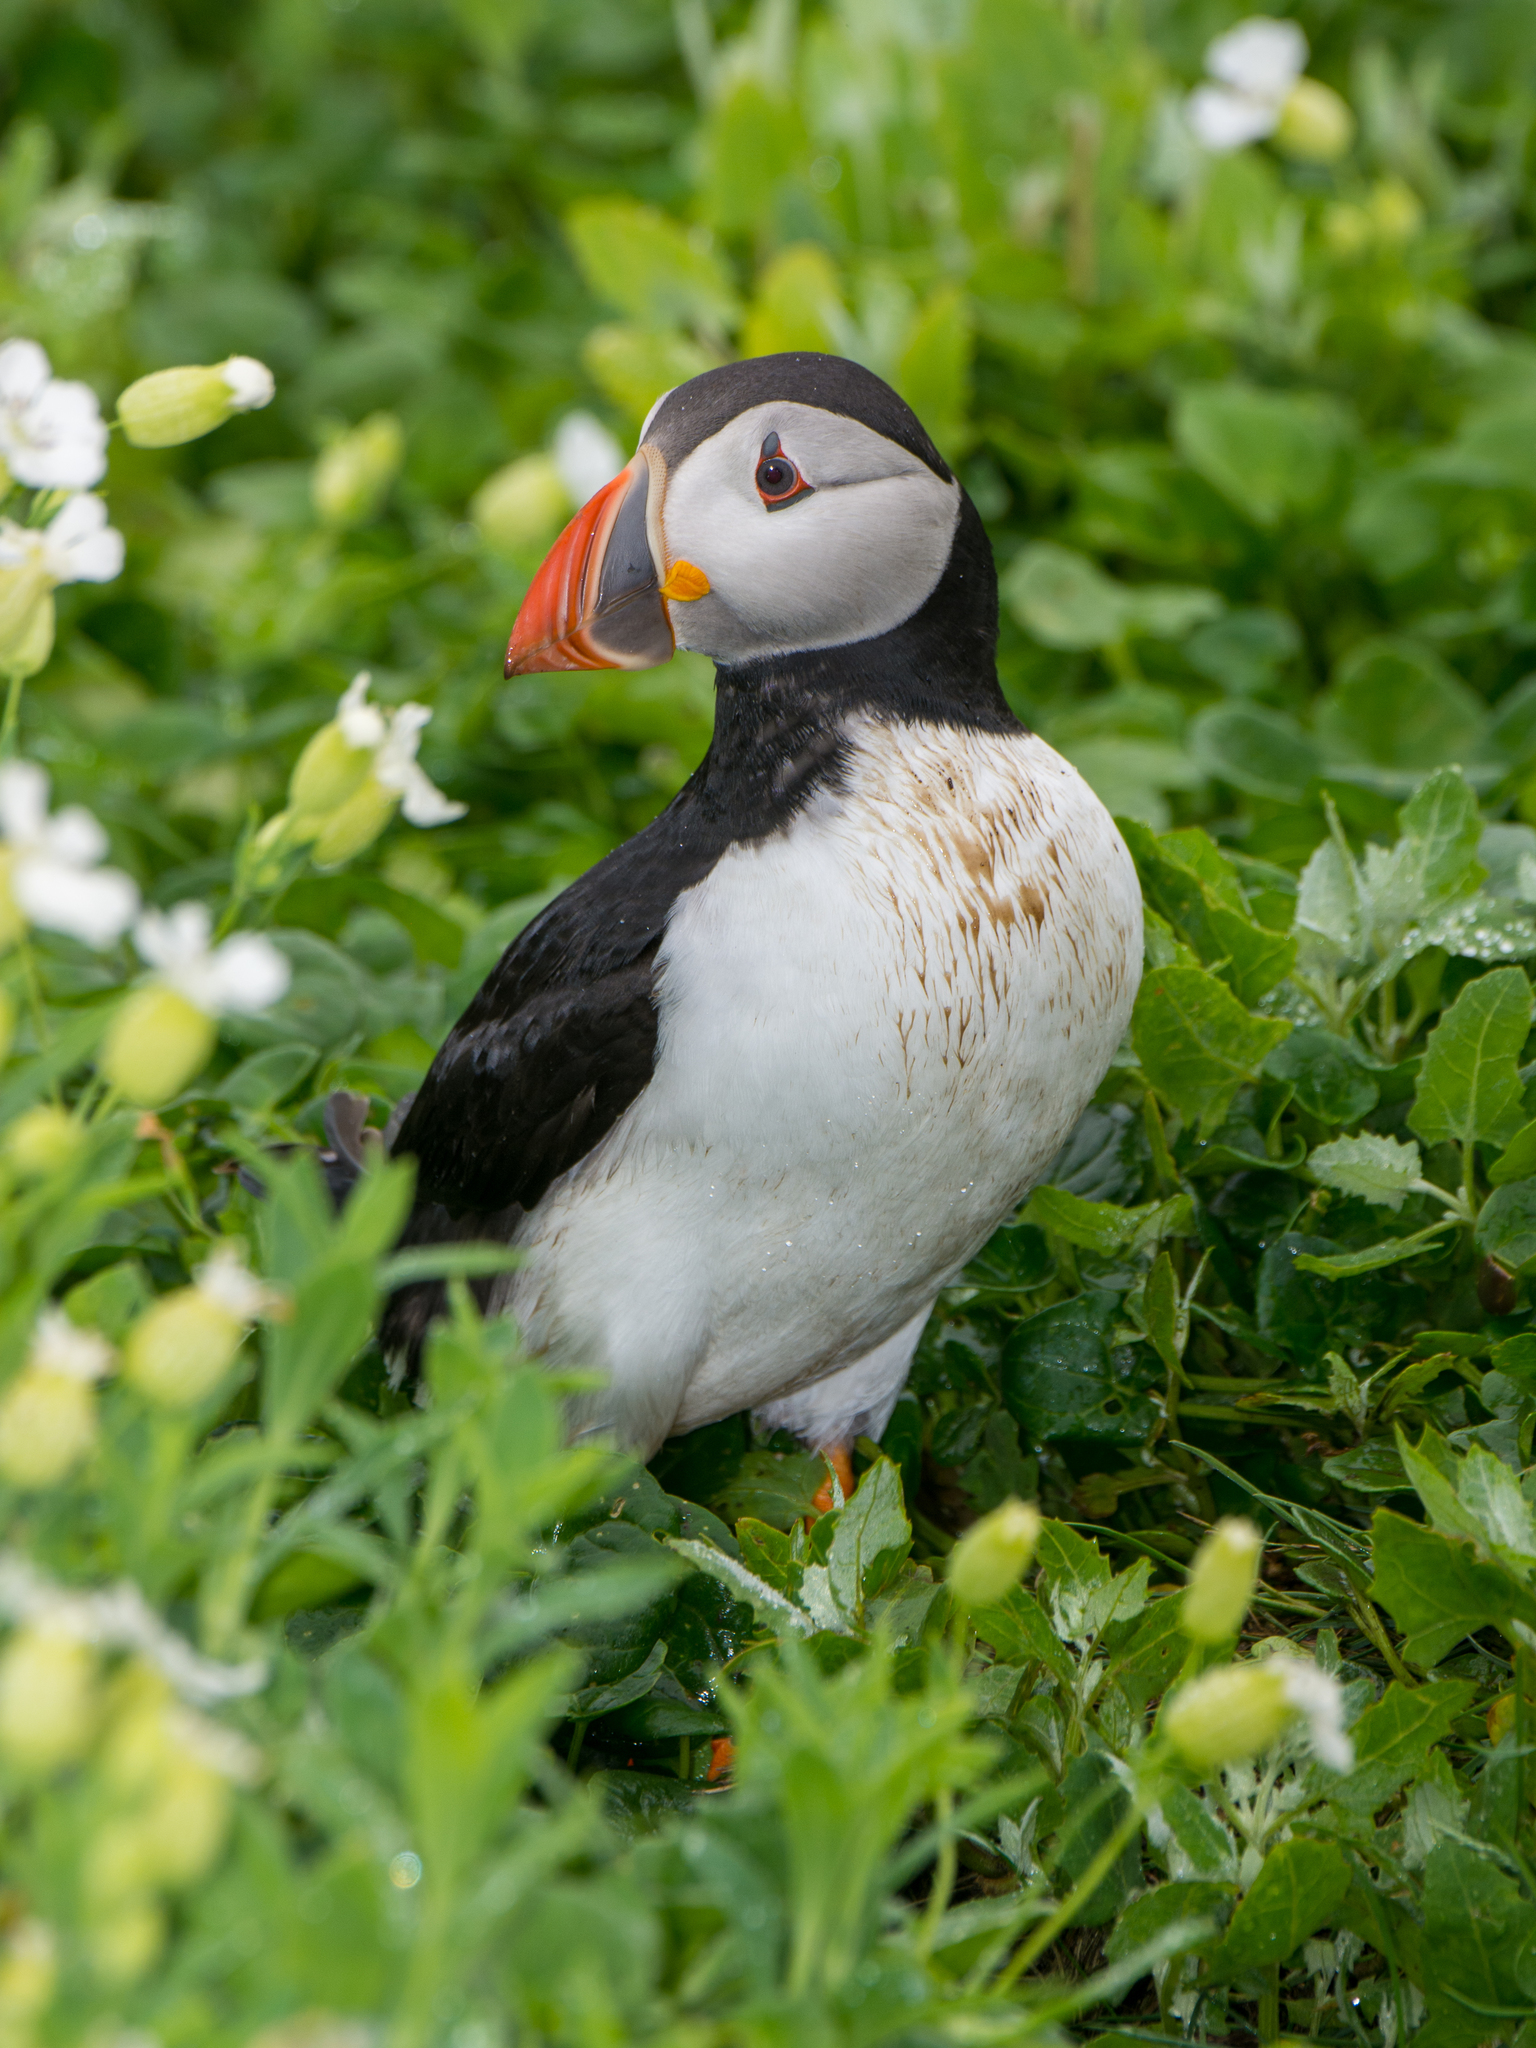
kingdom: Animalia
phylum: Chordata
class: Aves
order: Charadriiformes
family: Alcidae
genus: Fratercula
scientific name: Fratercula arctica
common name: Atlantic puffin
